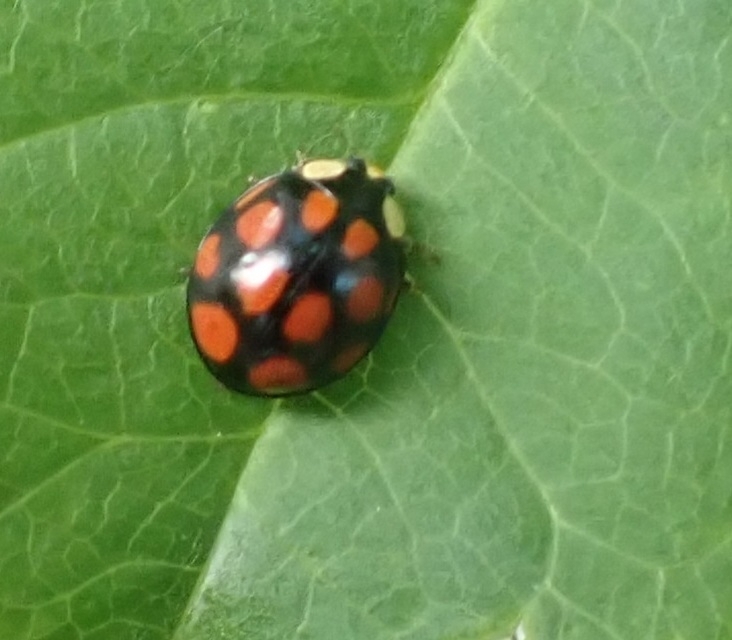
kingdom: Animalia
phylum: Arthropoda
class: Insecta
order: Coleoptera
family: Coccinellidae
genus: Harmonia
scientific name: Harmonia axyridis
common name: Harlequin ladybird
